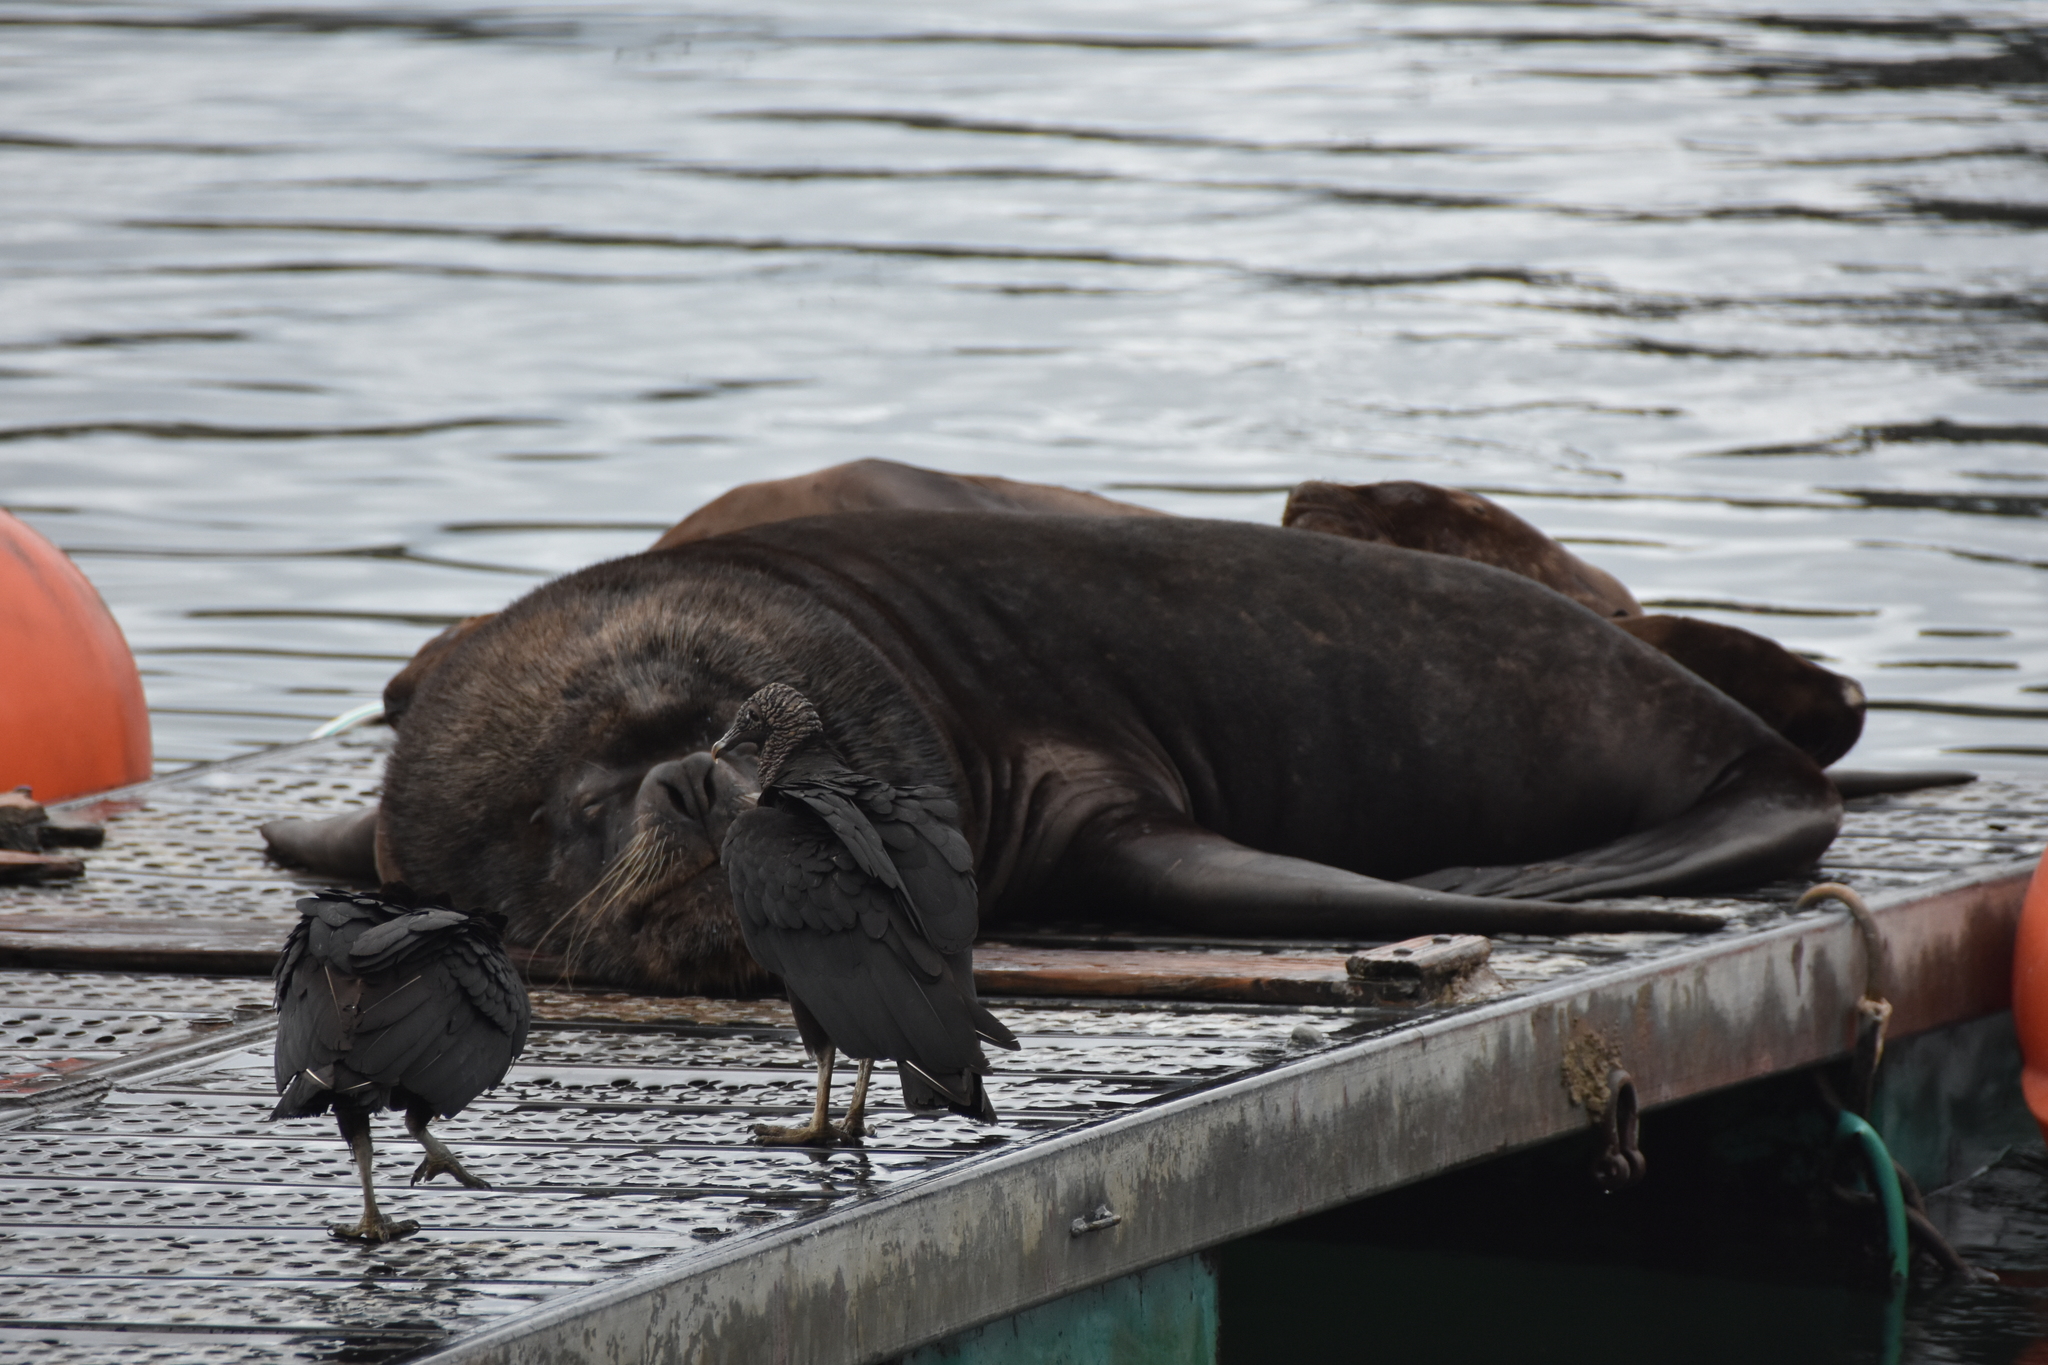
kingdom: Animalia
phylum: Chordata
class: Aves
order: Accipitriformes
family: Cathartidae
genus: Coragyps
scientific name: Coragyps atratus
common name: Black vulture
